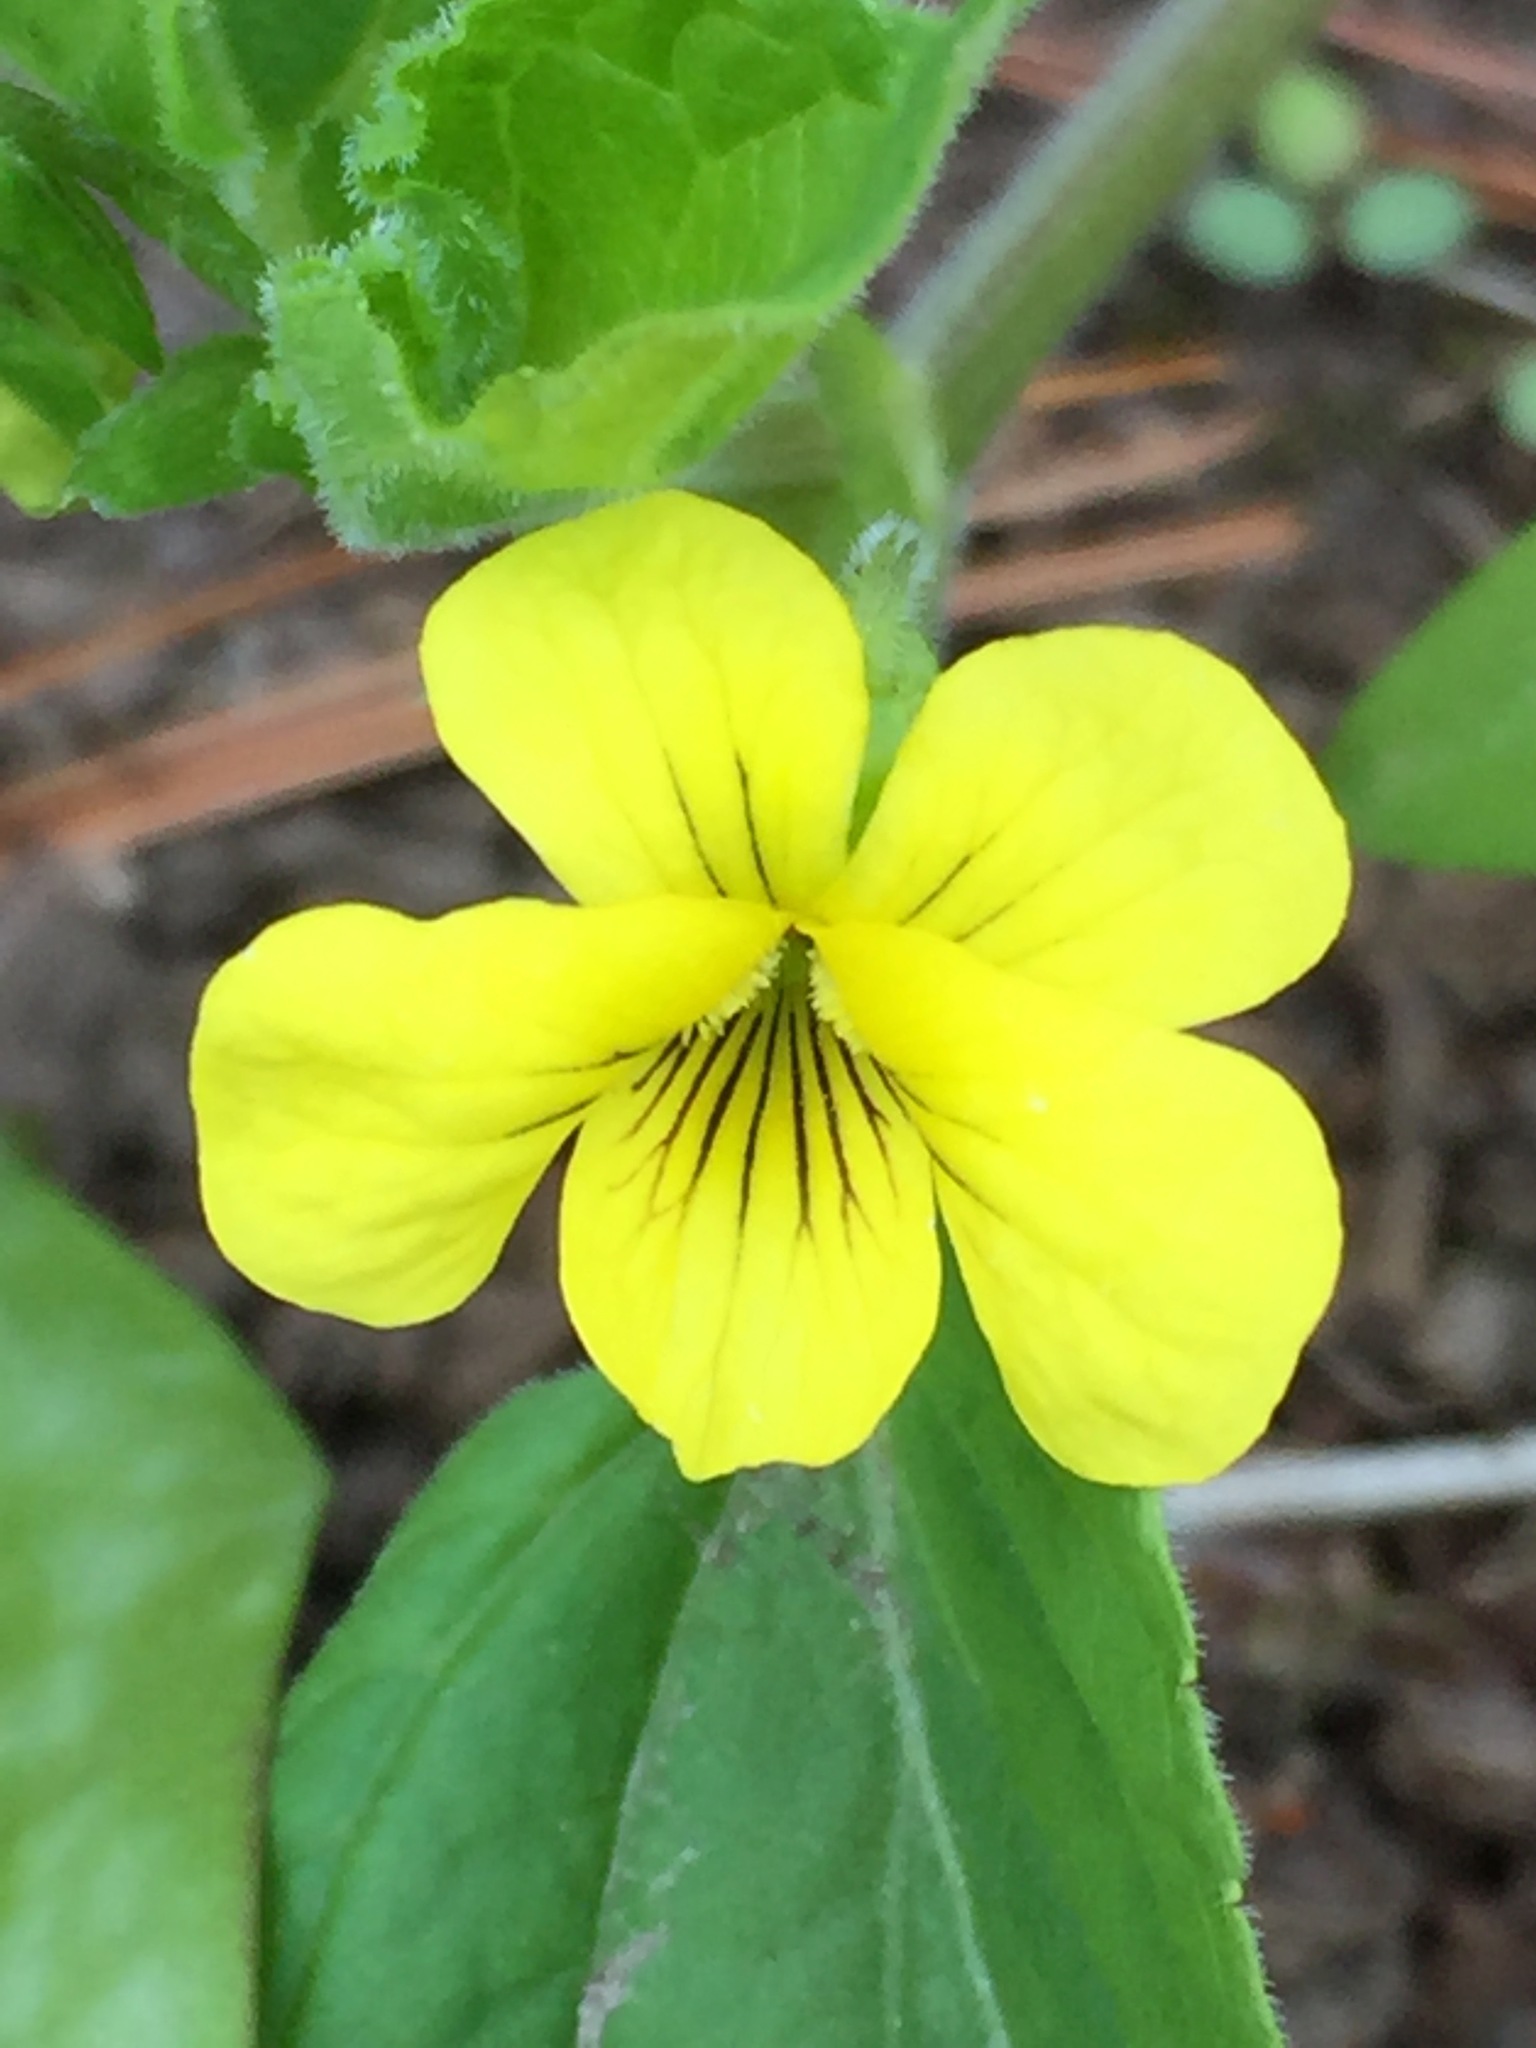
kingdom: Plantae
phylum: Tracheophyta
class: Magnoliopsida
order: Malpighiales
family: Violaceae
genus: Viola
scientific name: Viola eriocarpa
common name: Smooth yellow violet
